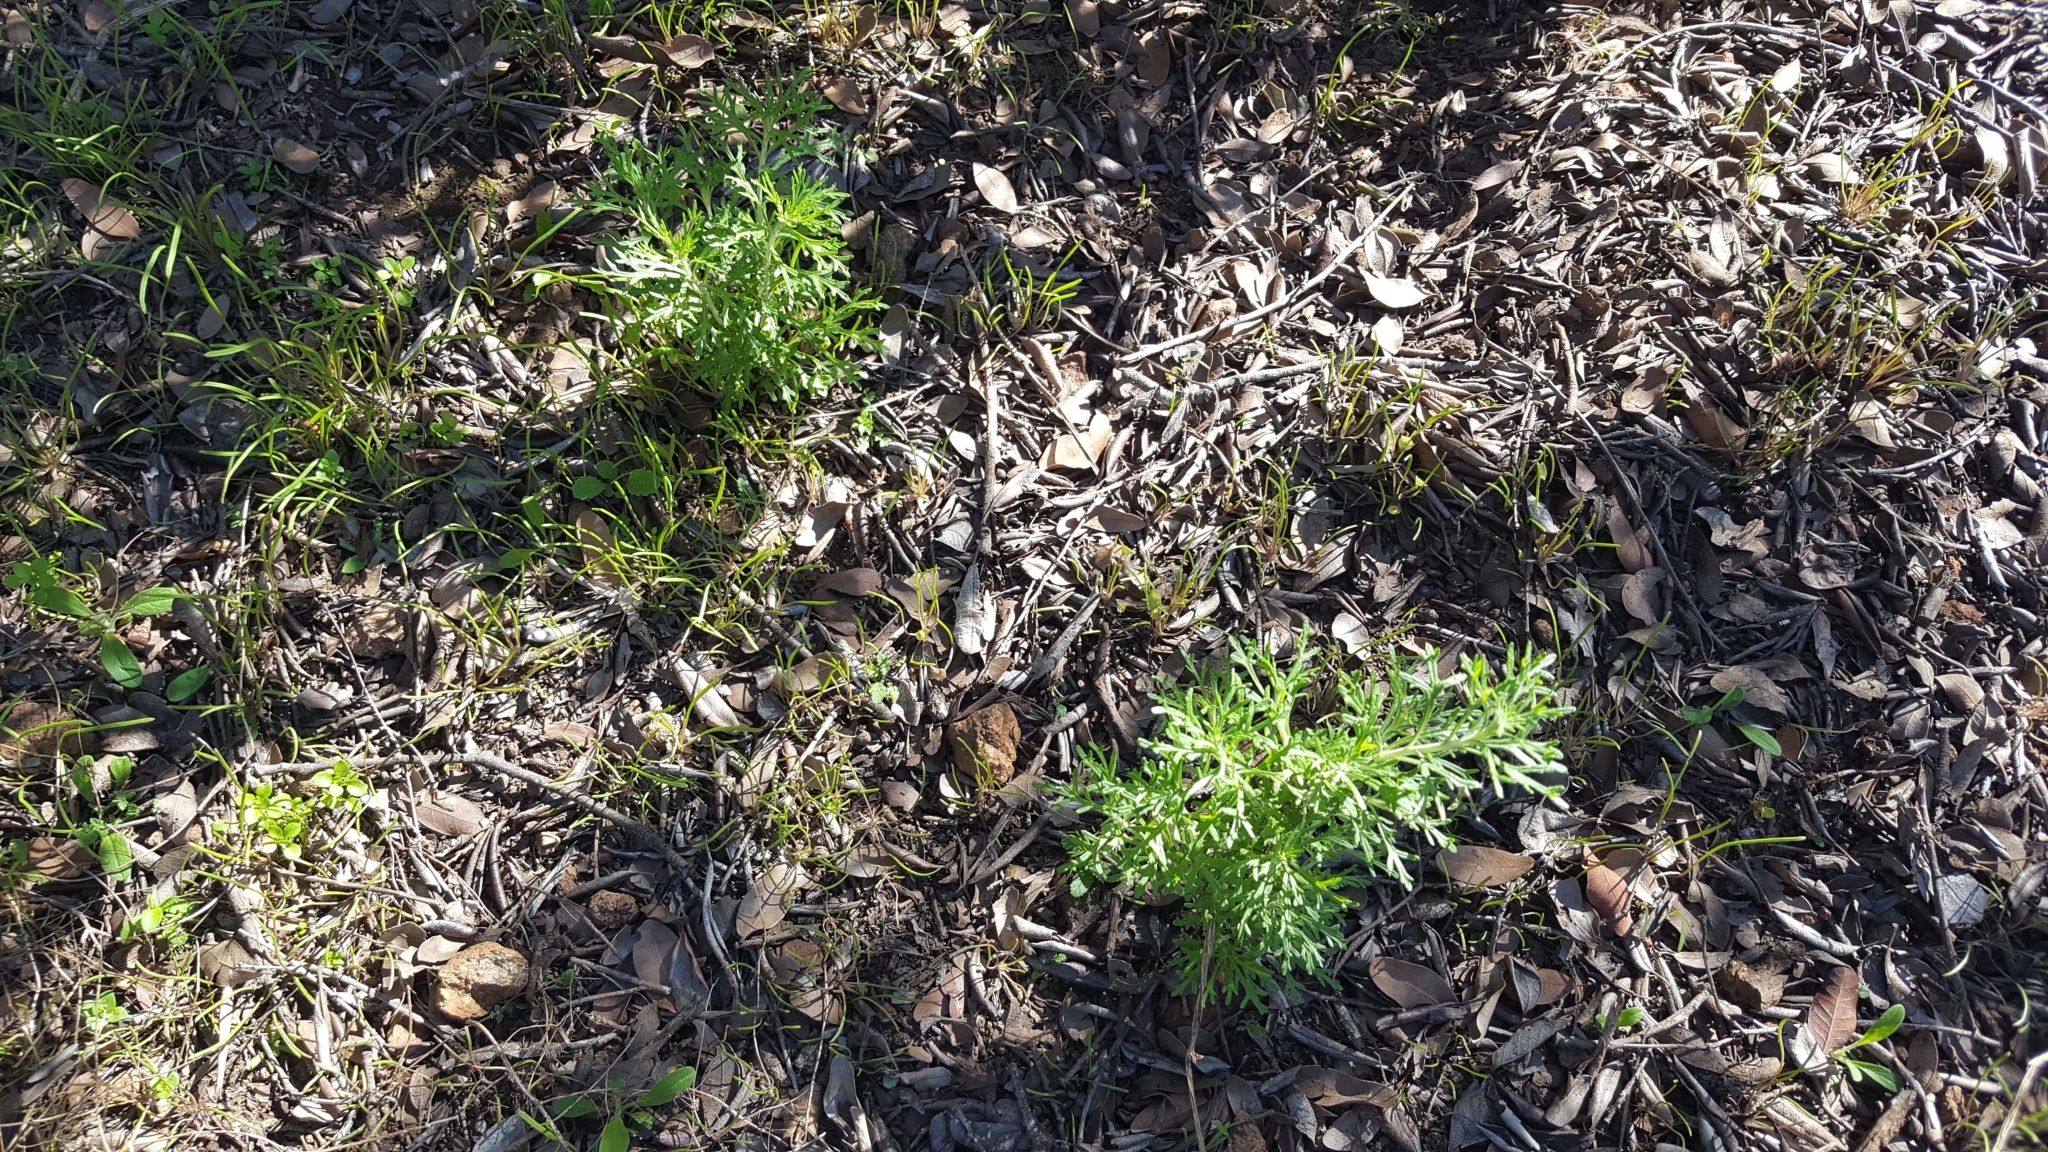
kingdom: Plantae
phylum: Tracheophyta
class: Magnoliopsida
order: Asterales
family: Asteraceae
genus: Eriophyllum
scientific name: Eriophyllum confertiflorum
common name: Golden-yarrow
